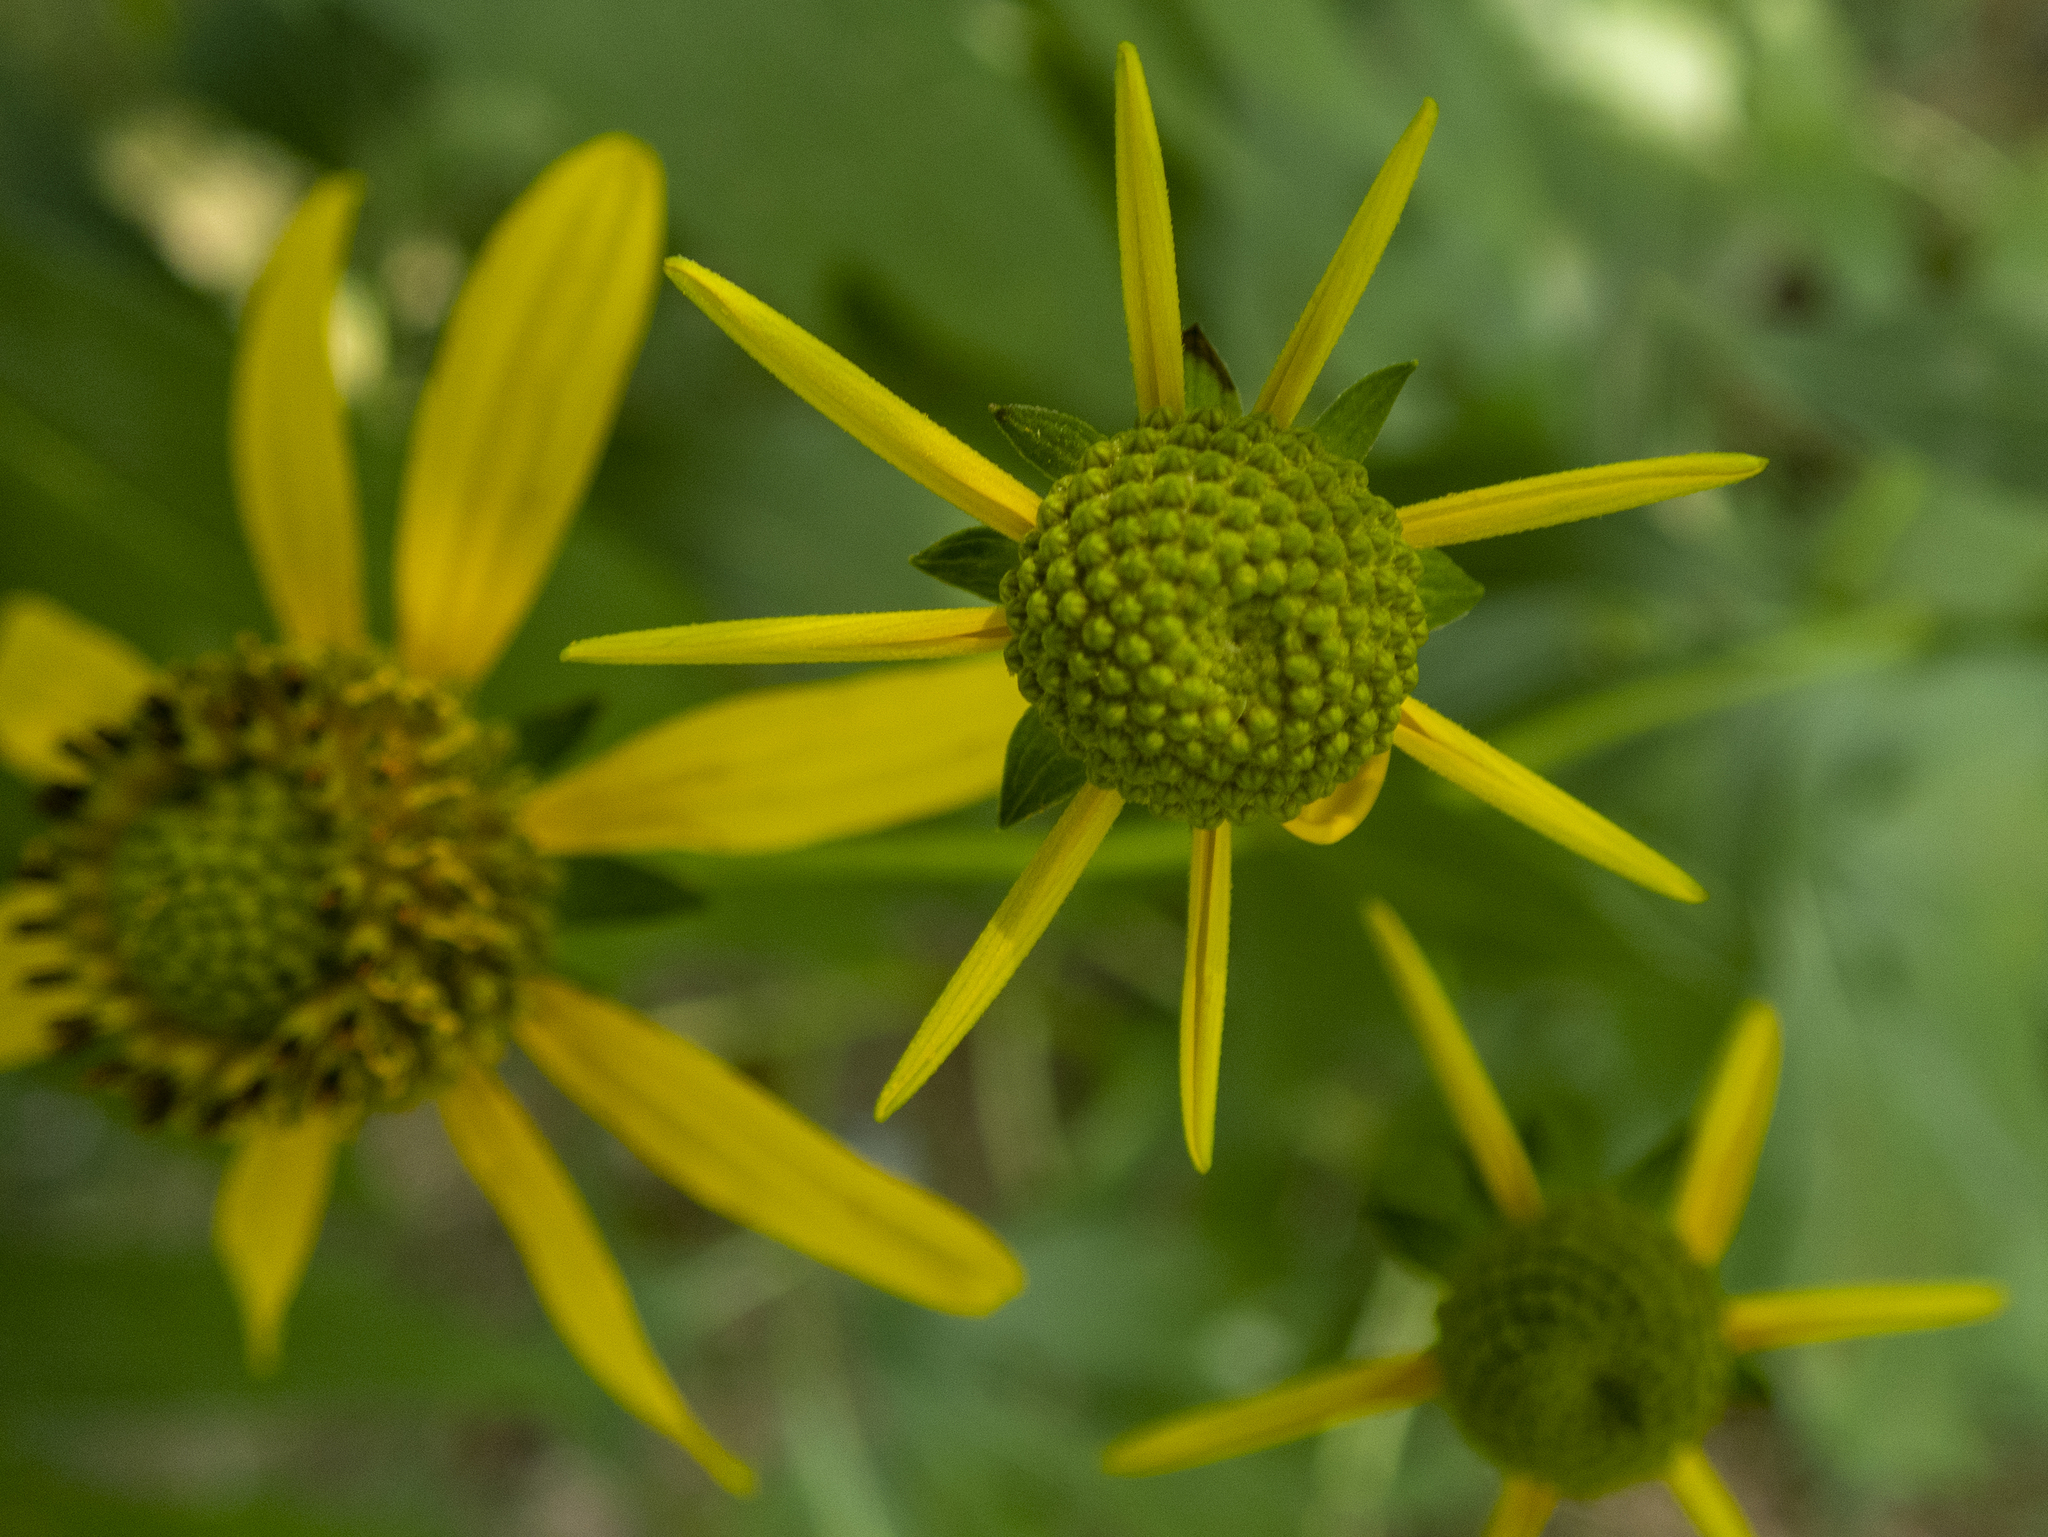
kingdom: Plantae
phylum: Tracheophyta
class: Magnoliopsida
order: Asterales
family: Asteraceae
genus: Rudbeckia
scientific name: Rudbeckia laciniata
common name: Coneflower
